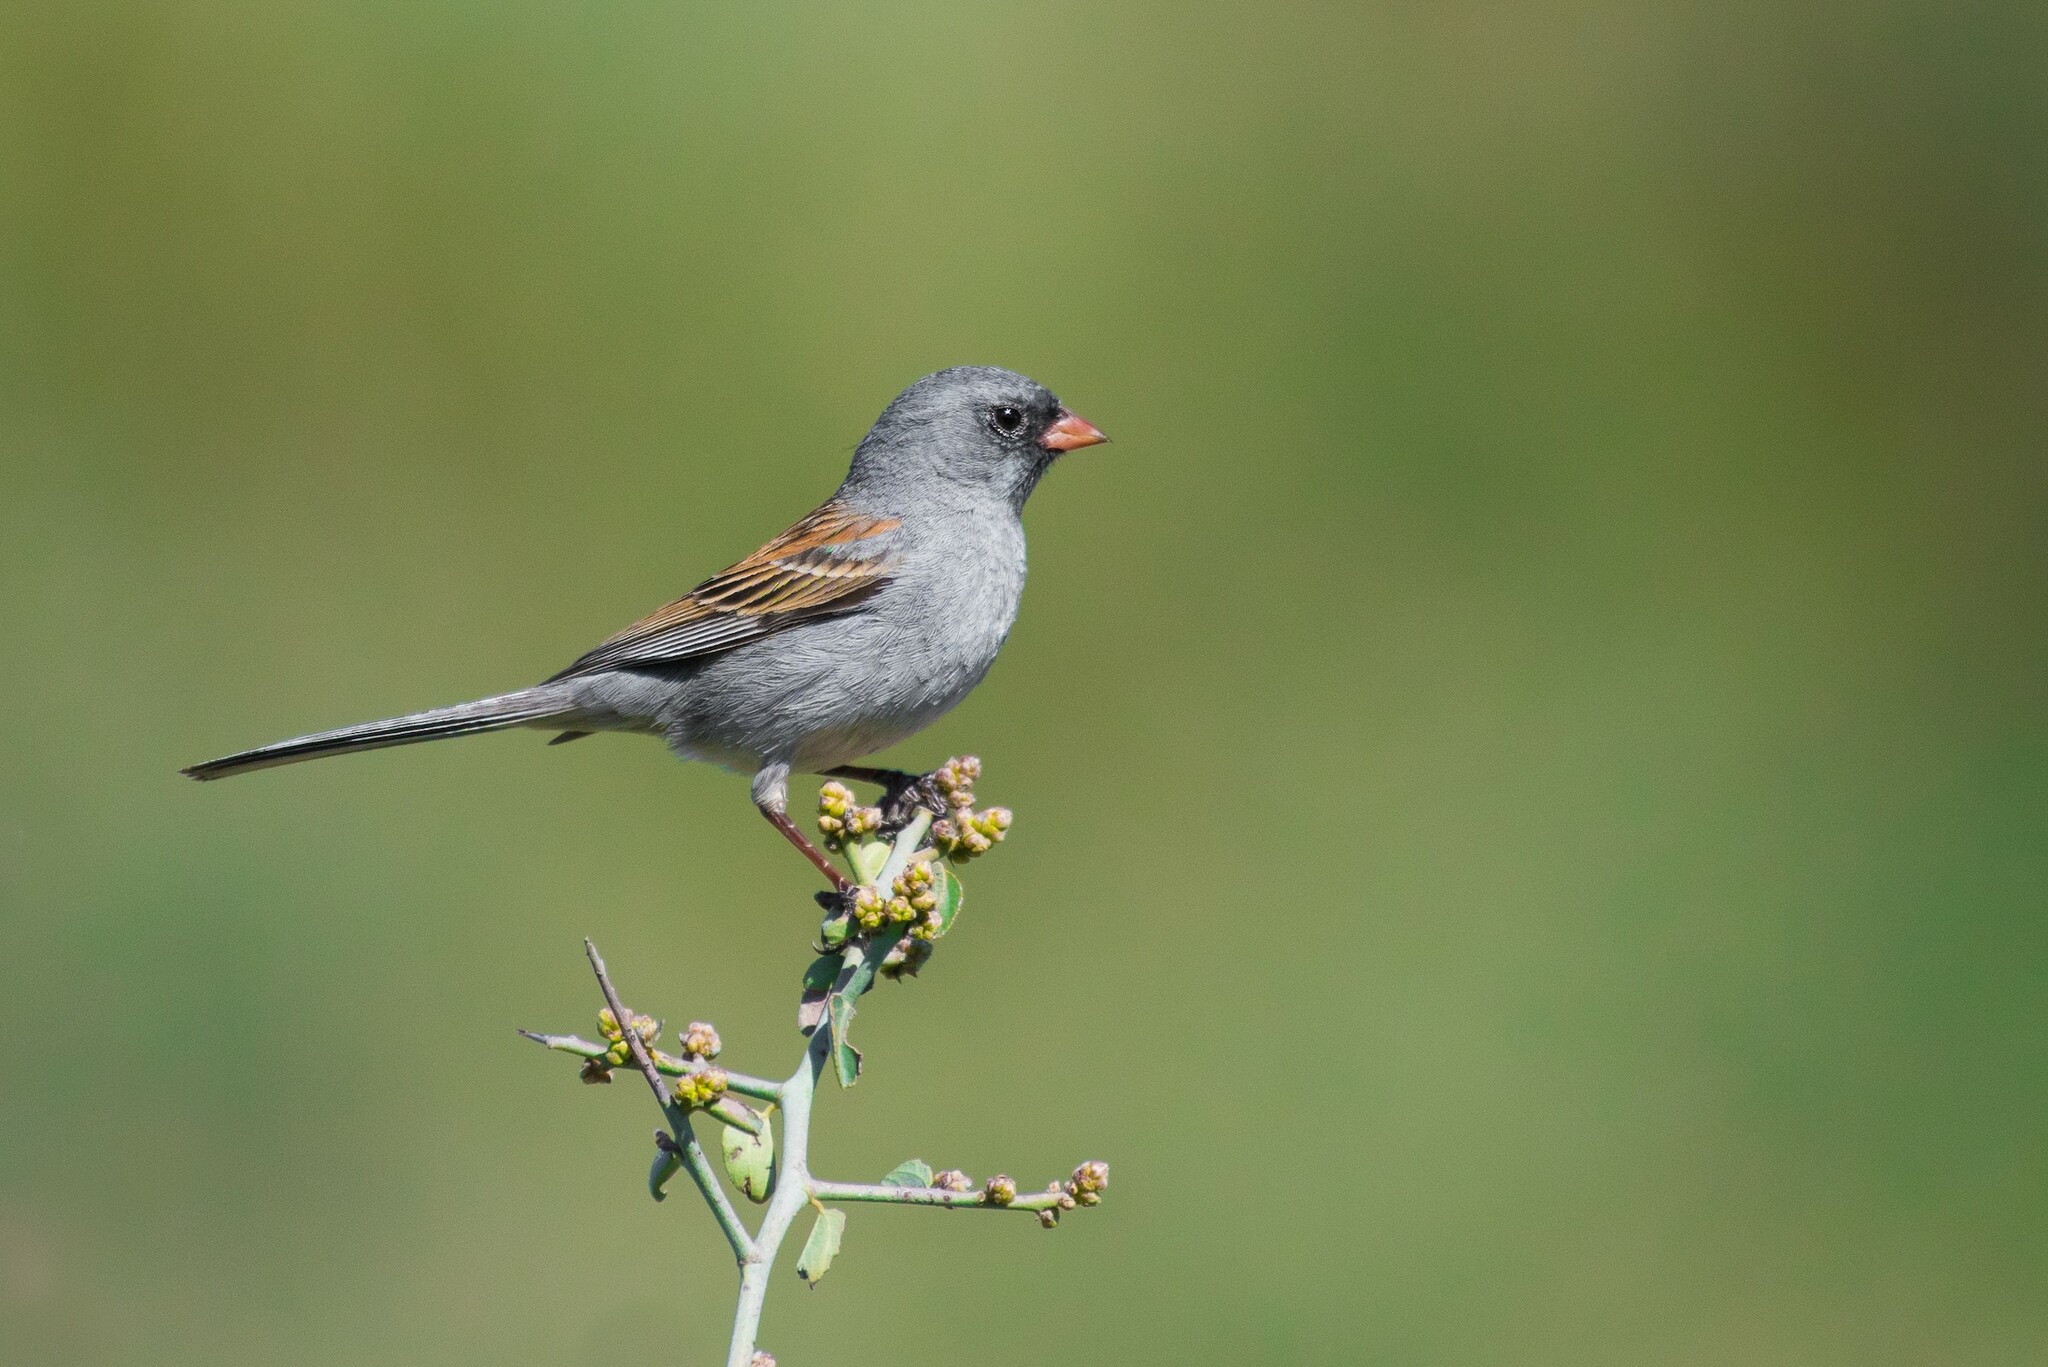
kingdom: Animalia
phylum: Chordata
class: Aves
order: Passeriformes
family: Passerellidae
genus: Spizella
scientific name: Spizella atrogularis
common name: Black-chinned sparrow
